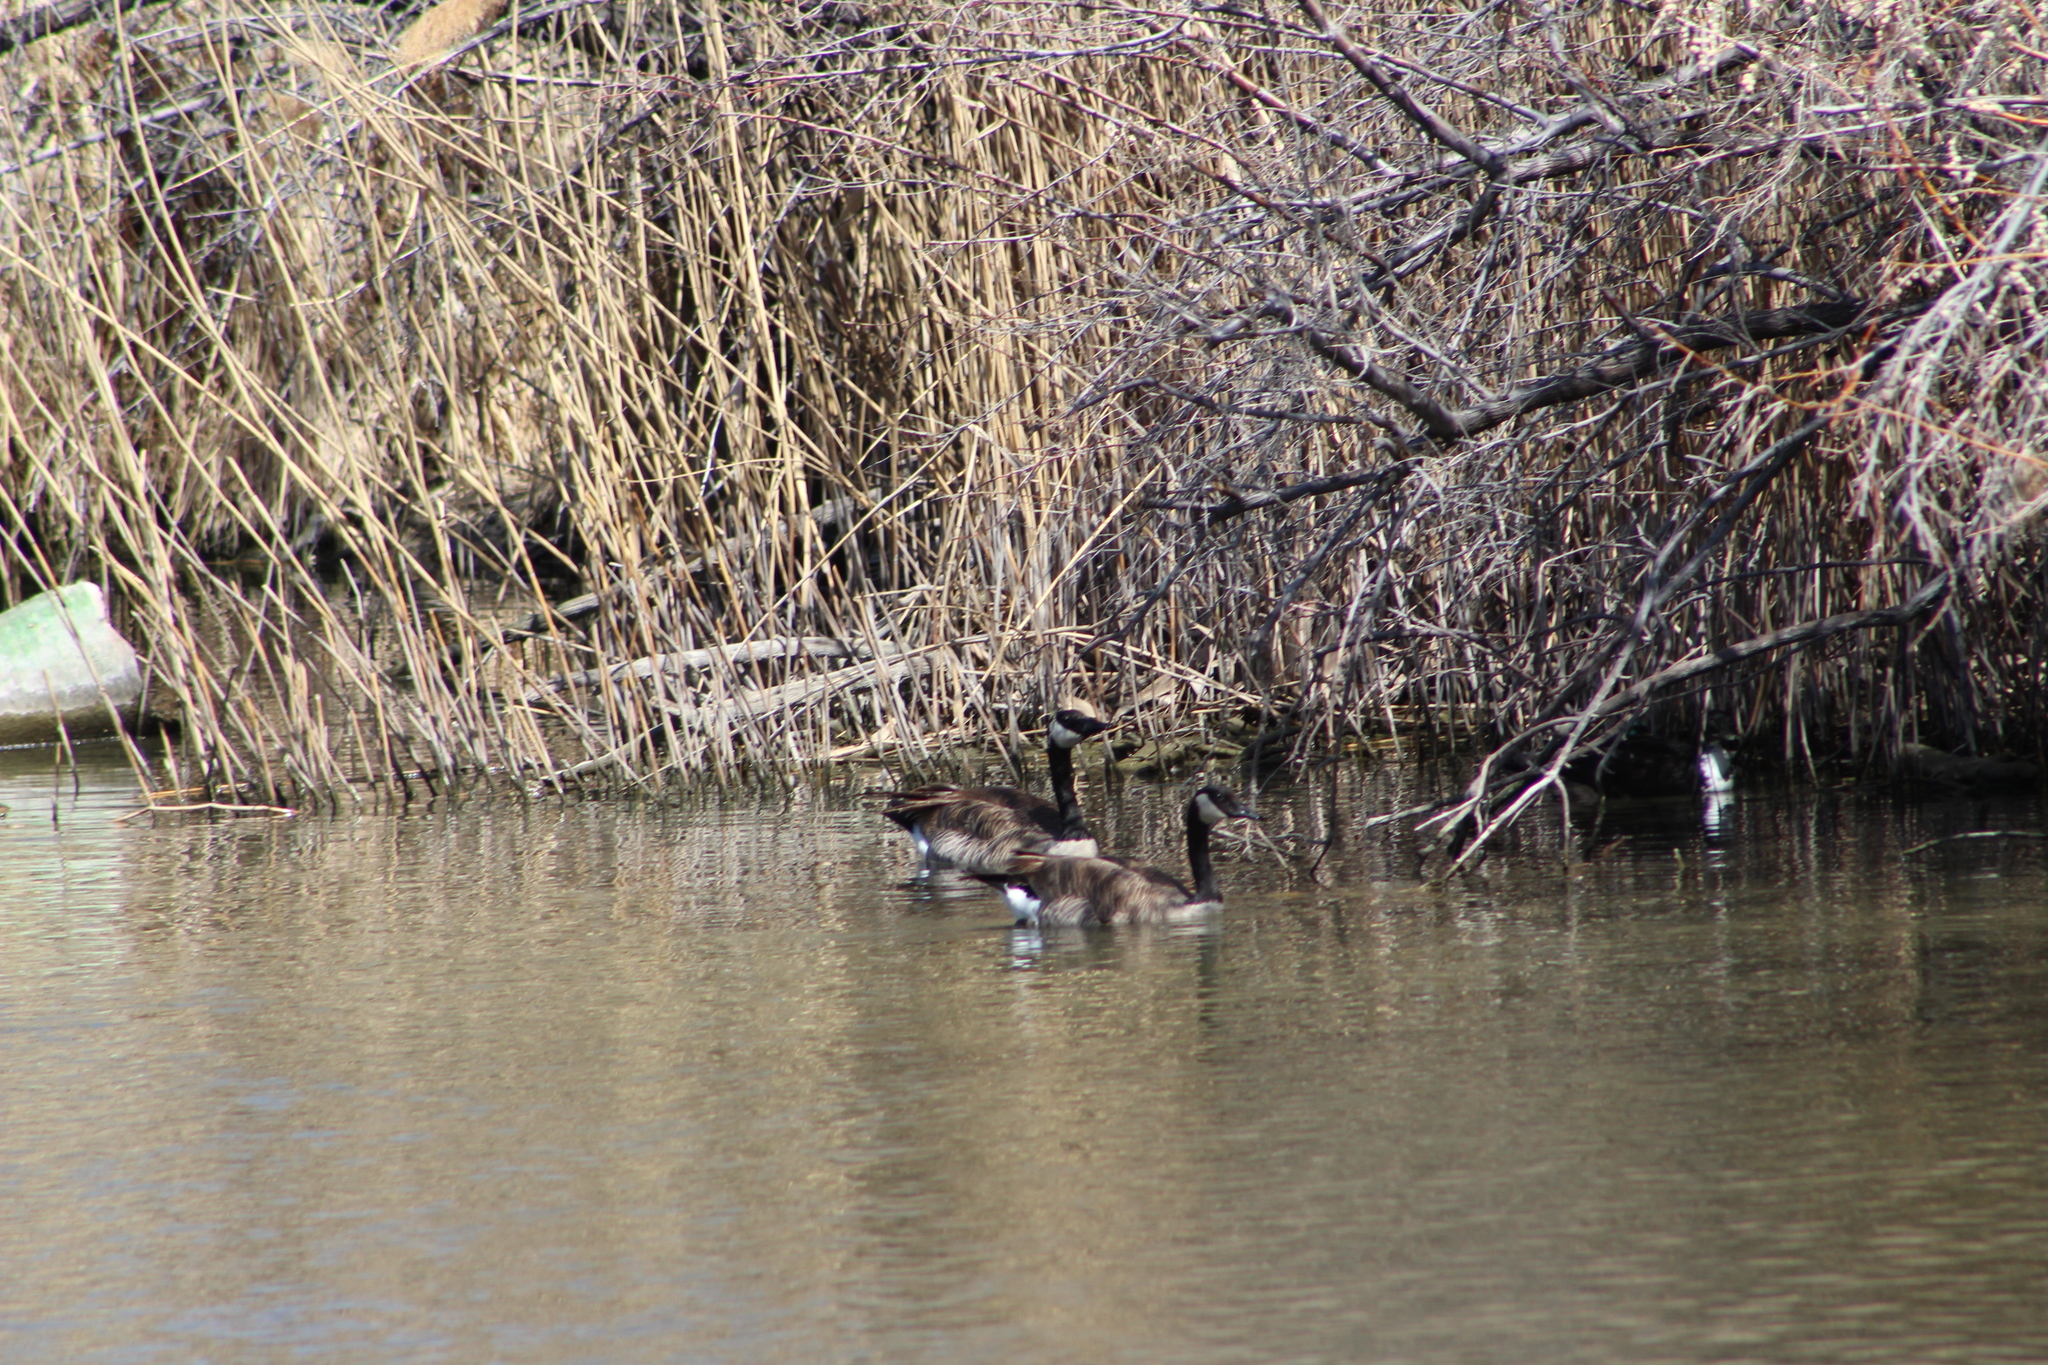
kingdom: Animalia
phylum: Chordata
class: Aves
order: Anseriformes
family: Anatidae
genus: Branta
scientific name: Branta canadensis
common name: Canada goose
